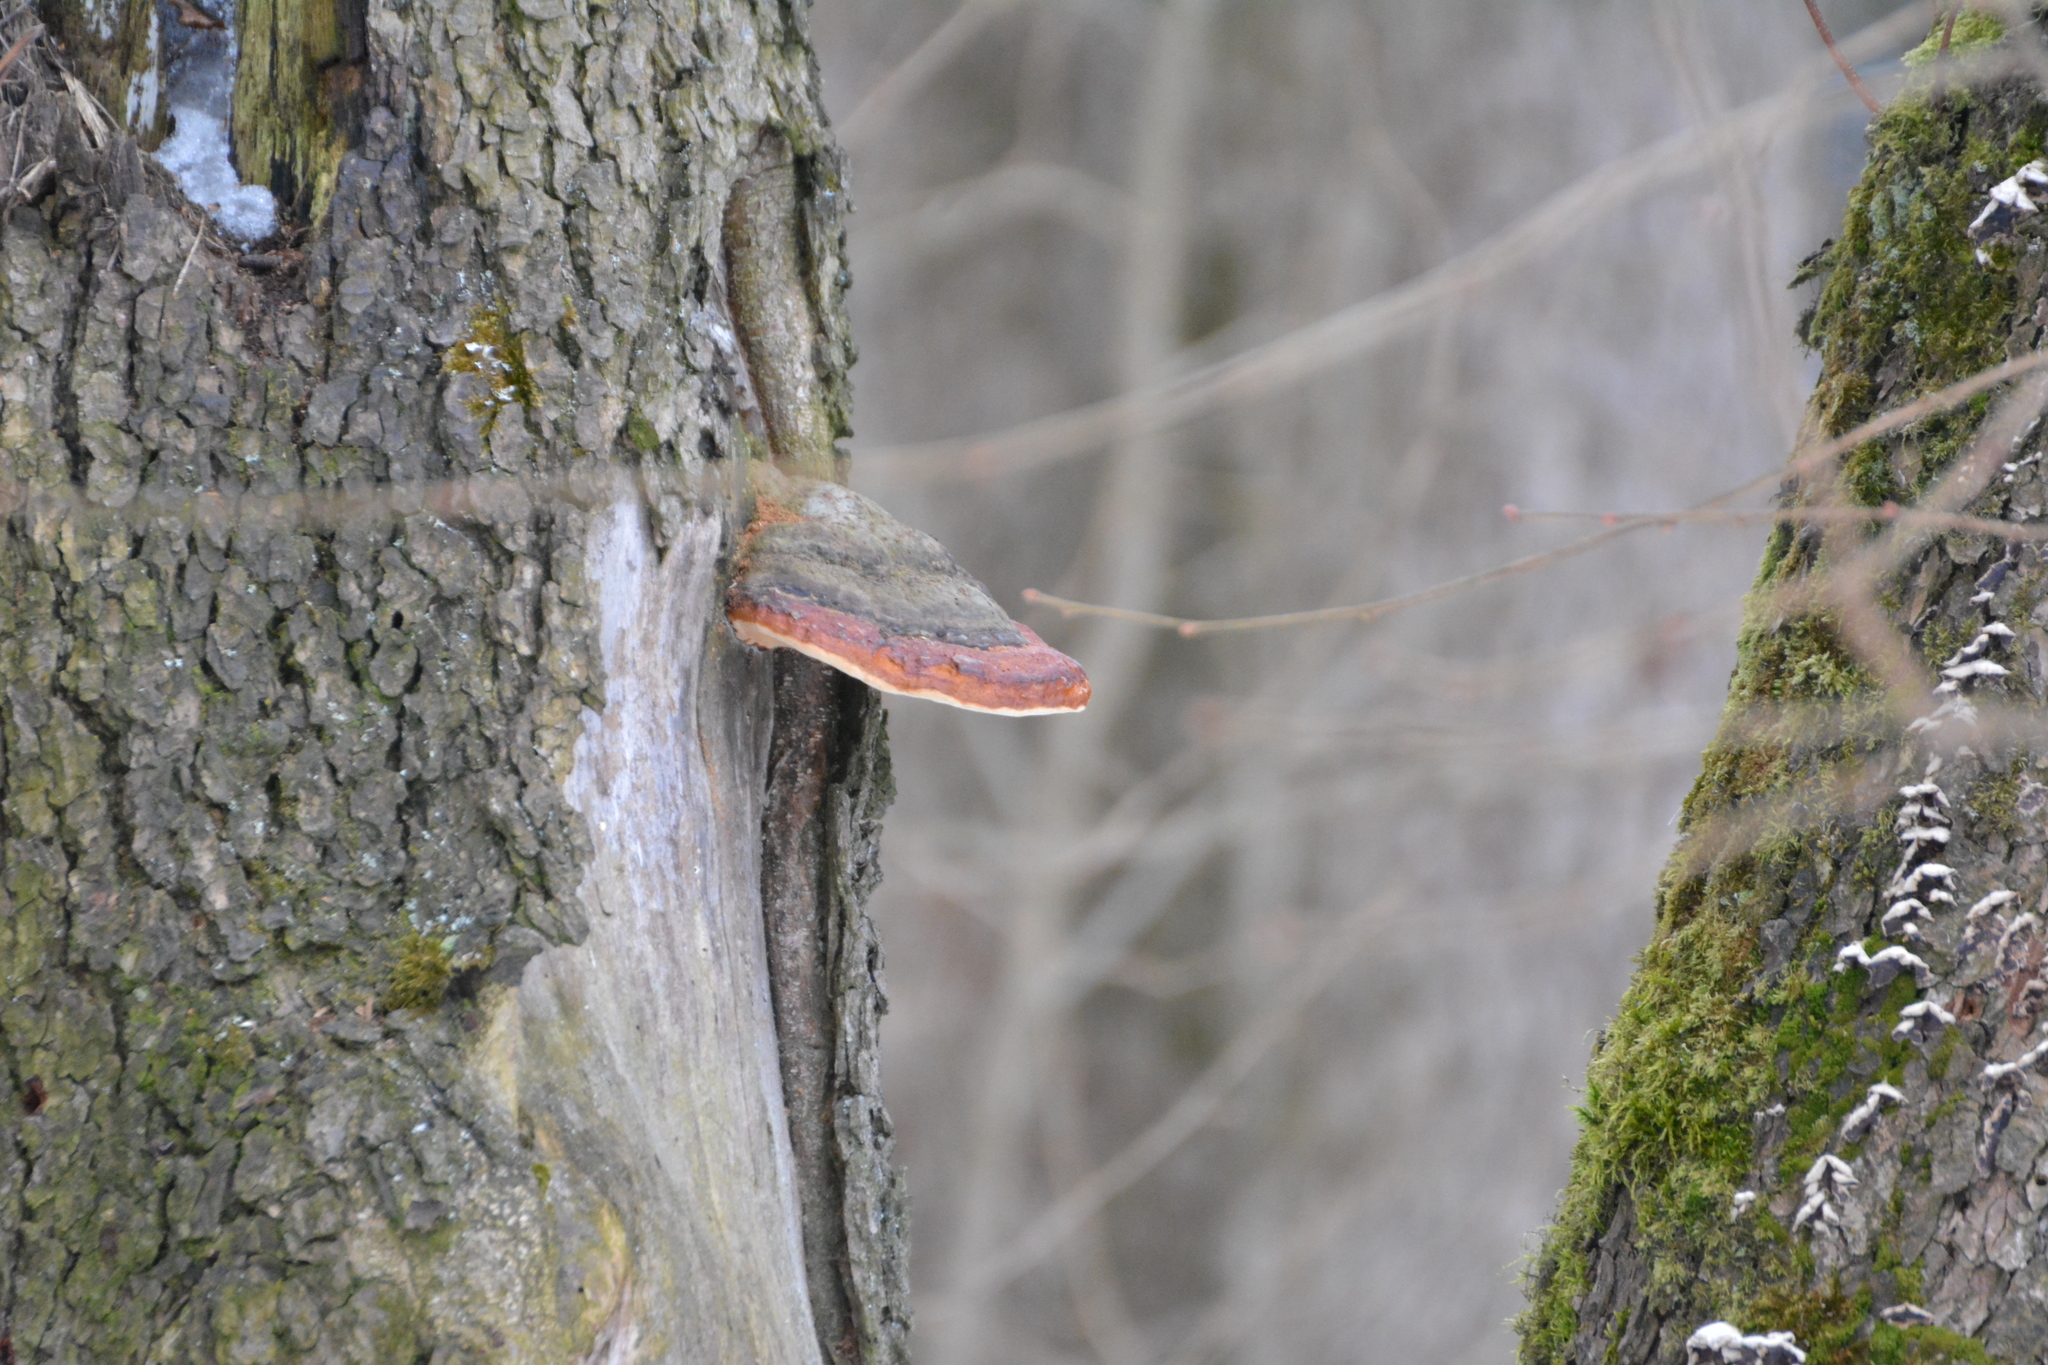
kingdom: Fungi
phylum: Basidiomycota
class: Agaricomycetes
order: Polyporales
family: Fomitopsidaceae
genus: Fomitopsis
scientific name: Fomitopsis pinicola
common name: Red-belted bracket
